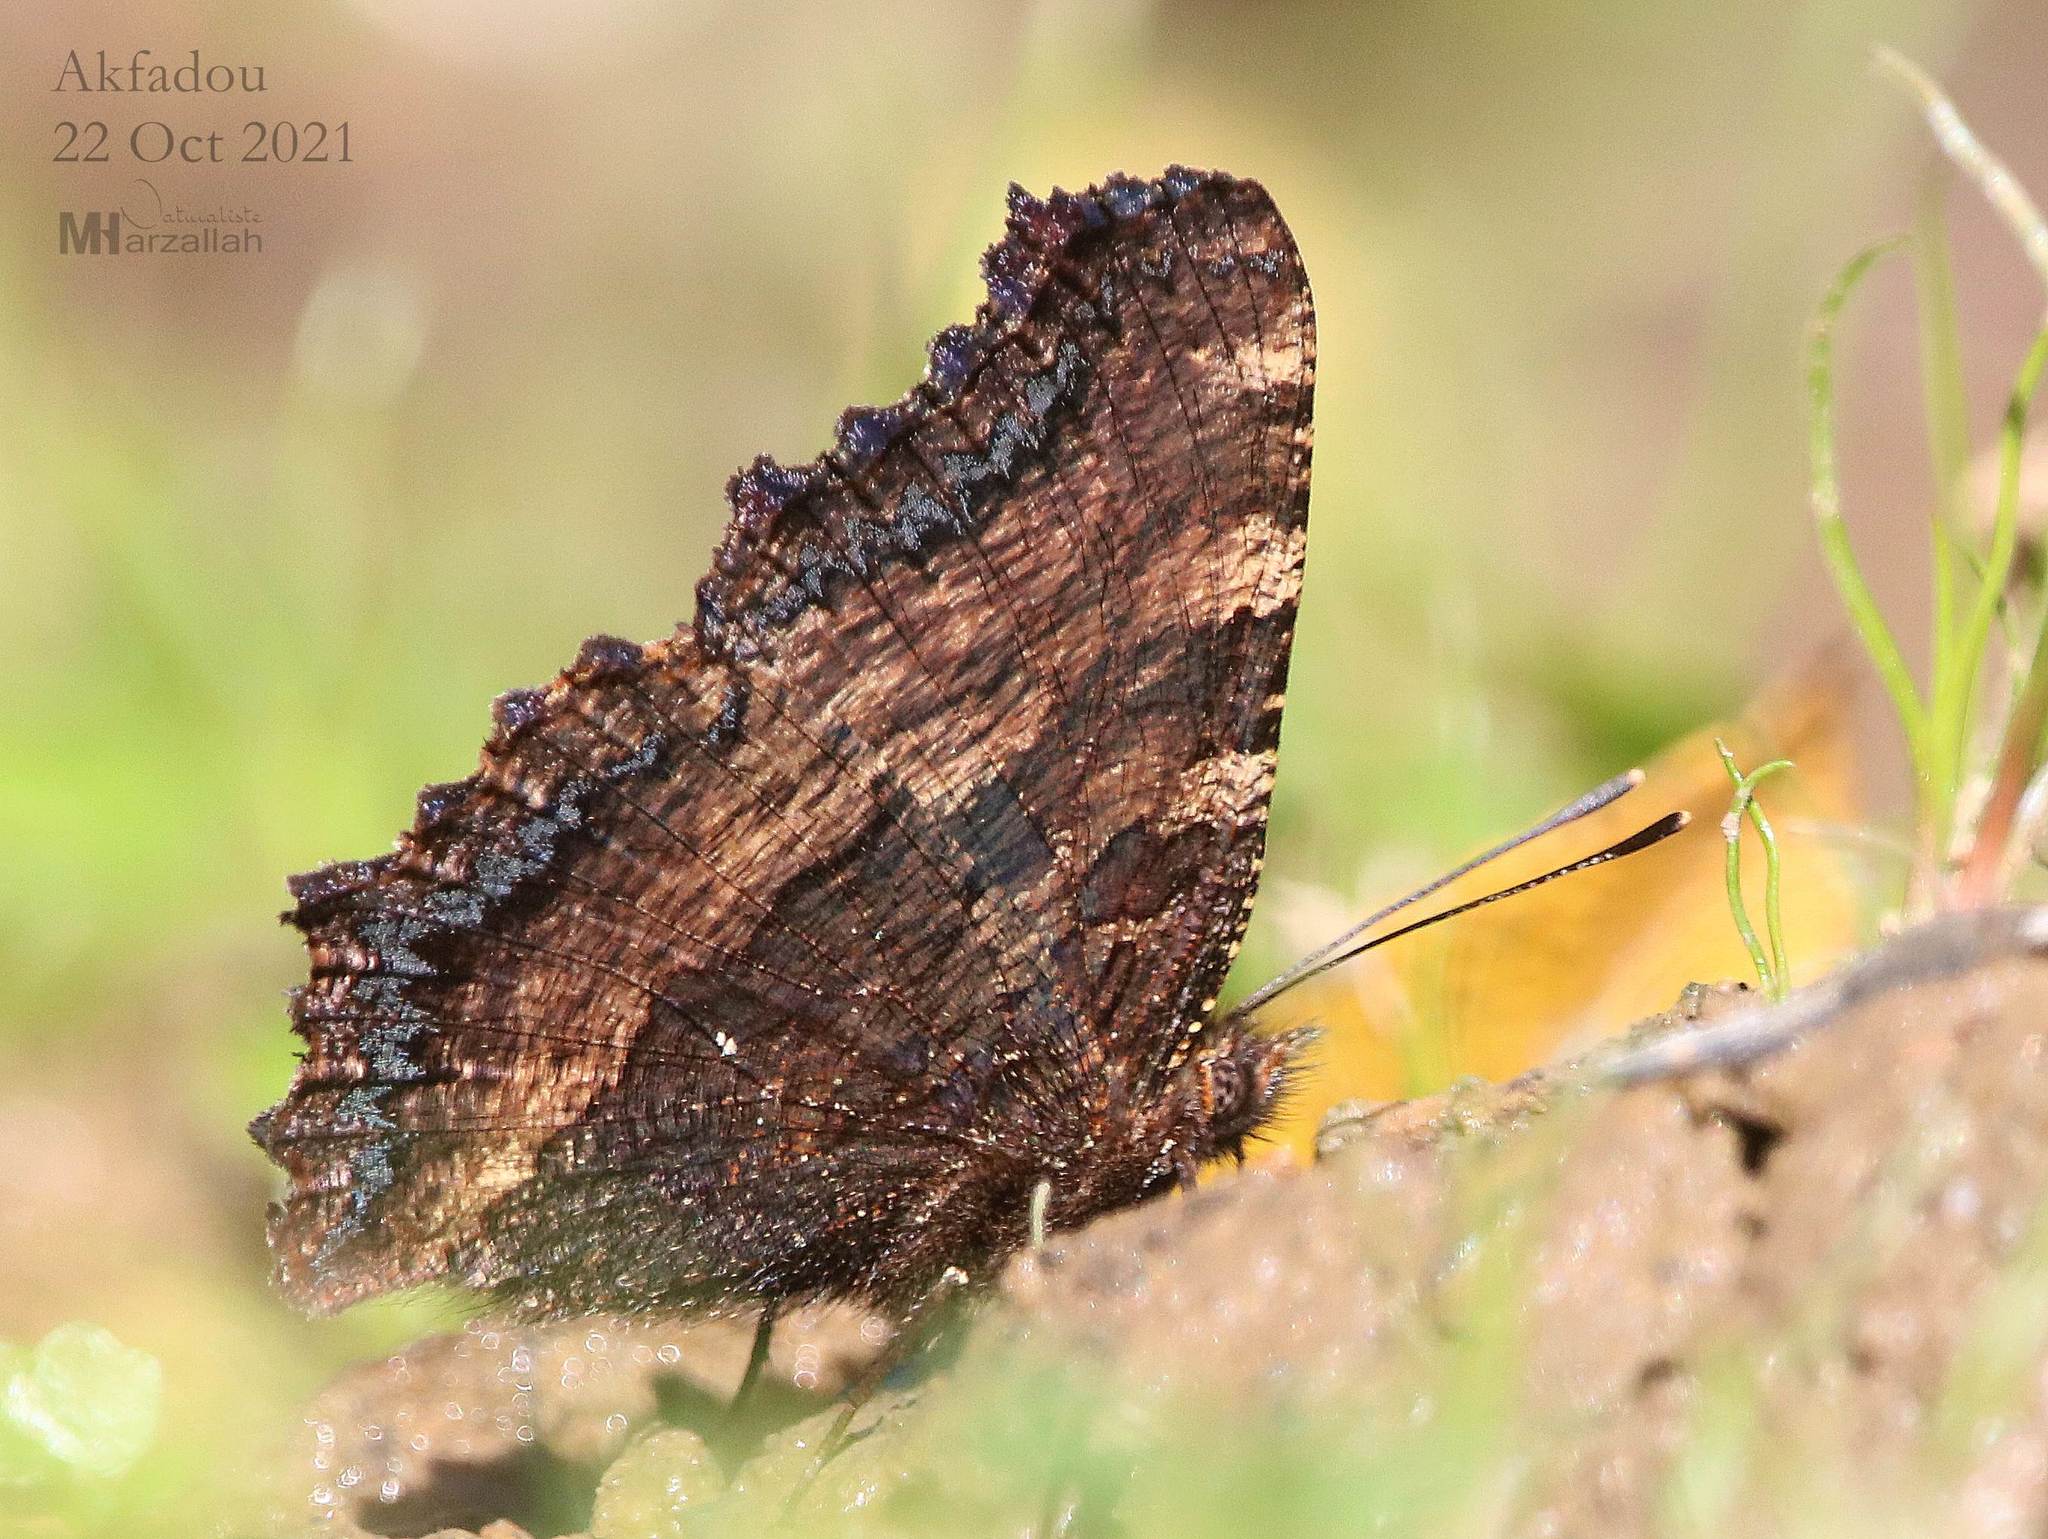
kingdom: Animalia
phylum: Arthropoda
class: Insecta
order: Lepidoptera
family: Nymphalidae
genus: Nymphalis
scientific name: Nymphalis polychloros
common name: Large tortoiseshell
